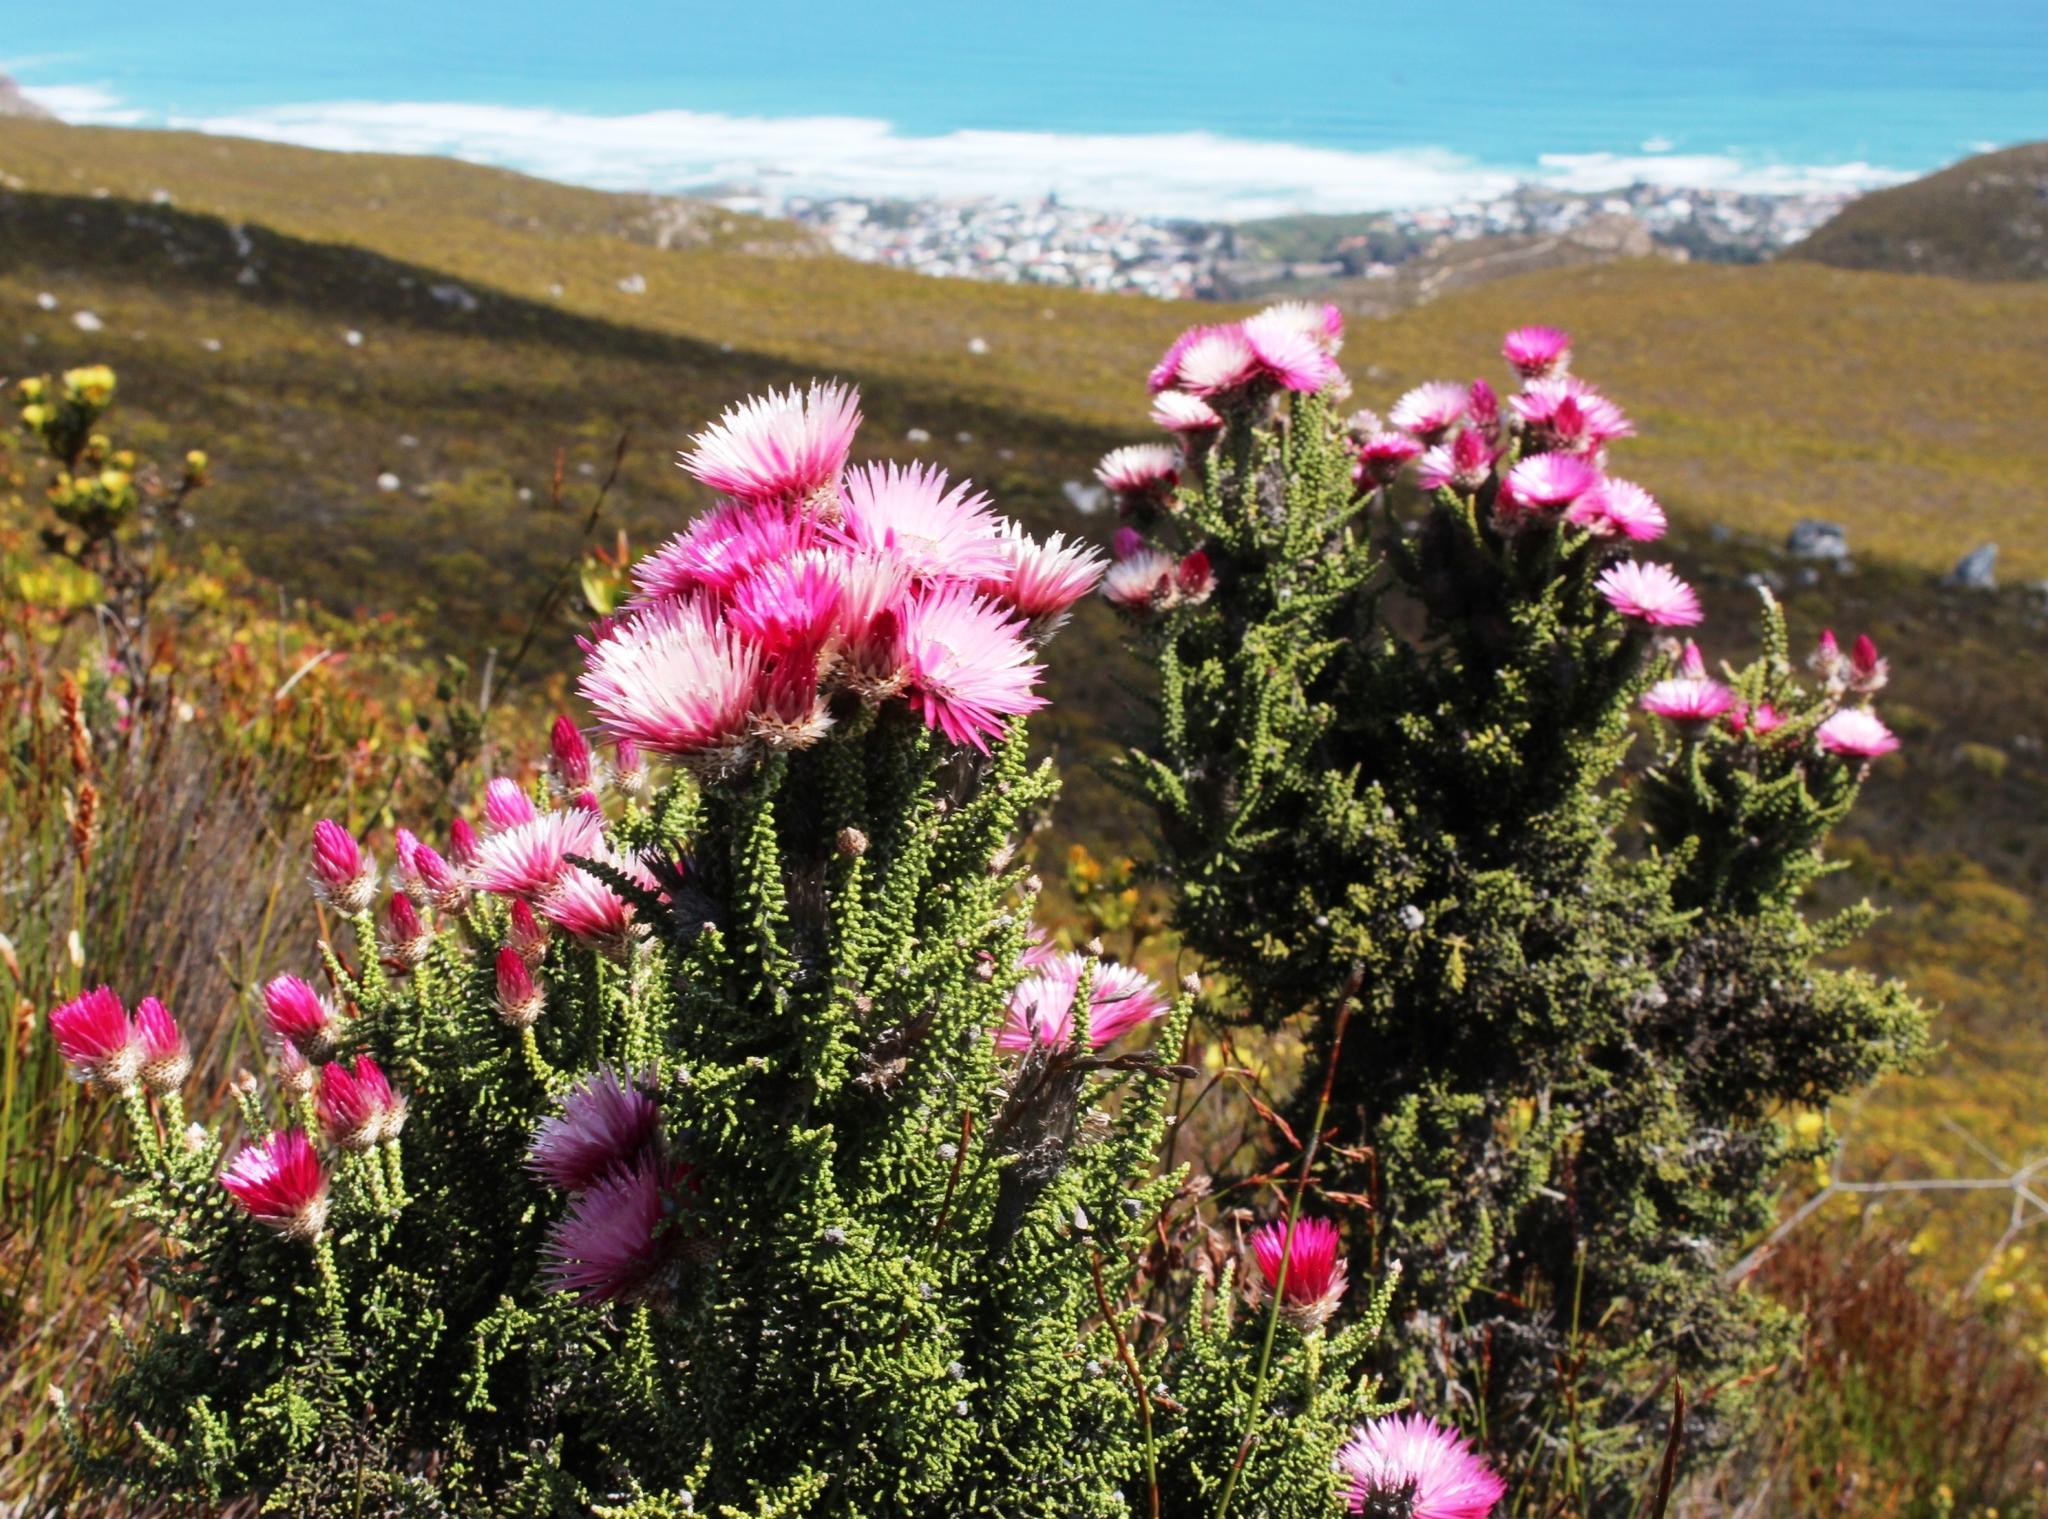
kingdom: Plantae
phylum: Tracheophyta
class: Magnoliopsida
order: Asterales
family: Asteraceae
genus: Phaenocoma
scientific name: Phaenocoma prolifera
